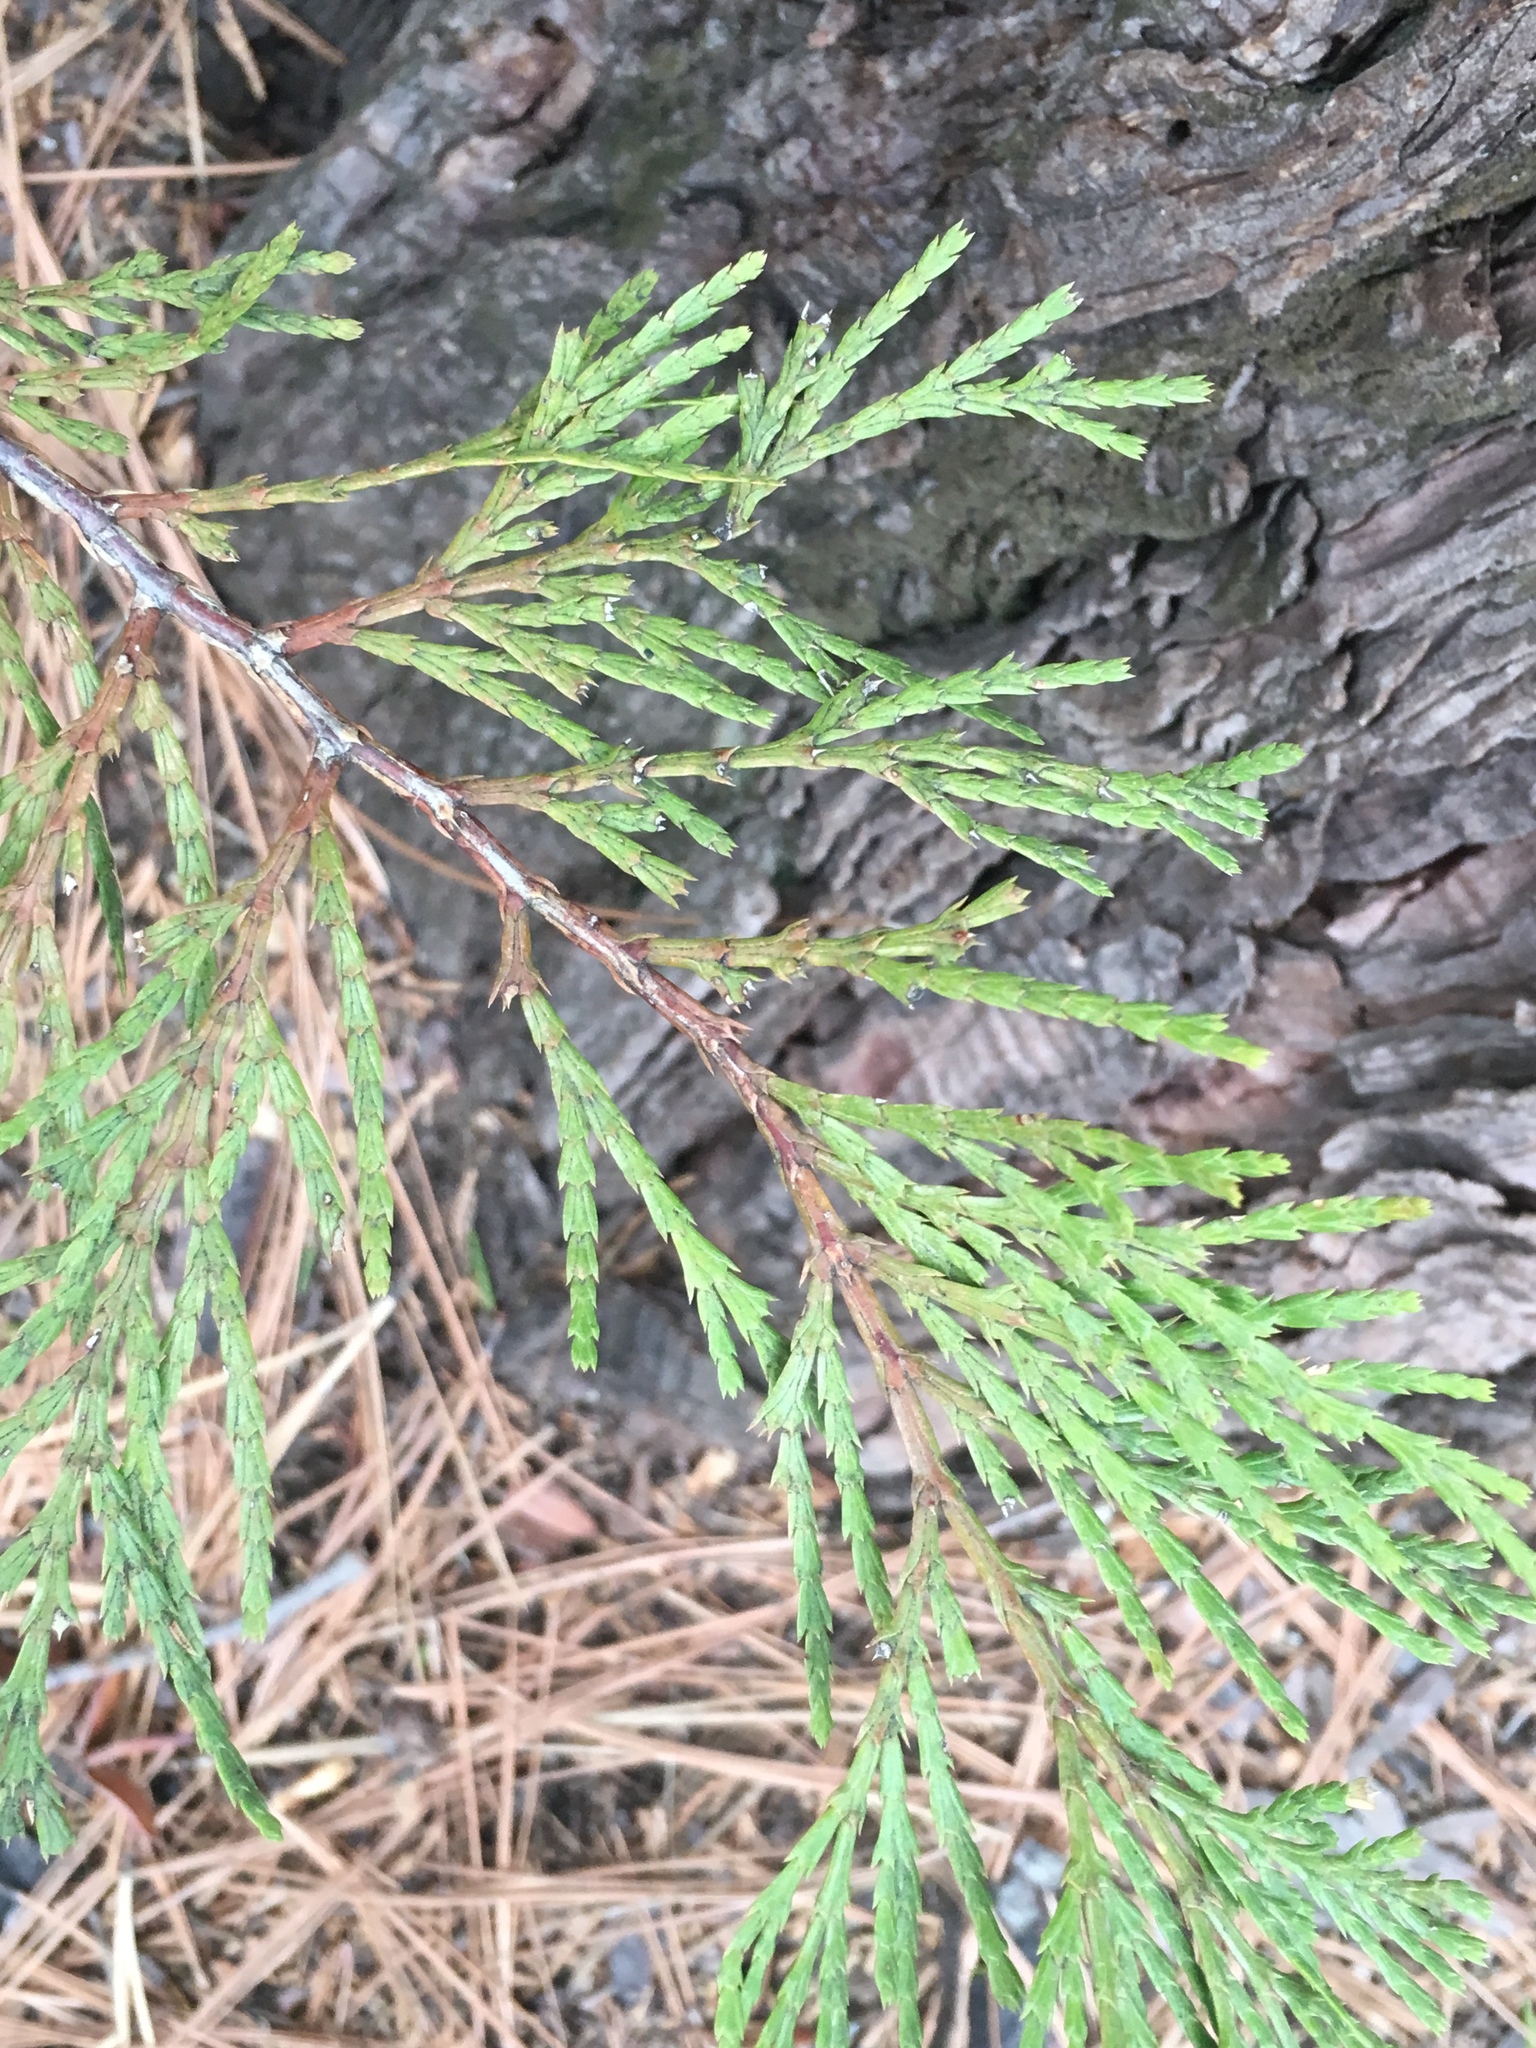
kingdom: Plantae
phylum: Tracheophyta
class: Pinopsida
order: Pinales
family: Cupressaceae
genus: Calocedrus
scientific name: Calocedrus decurrens
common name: Californian incense-cedar
